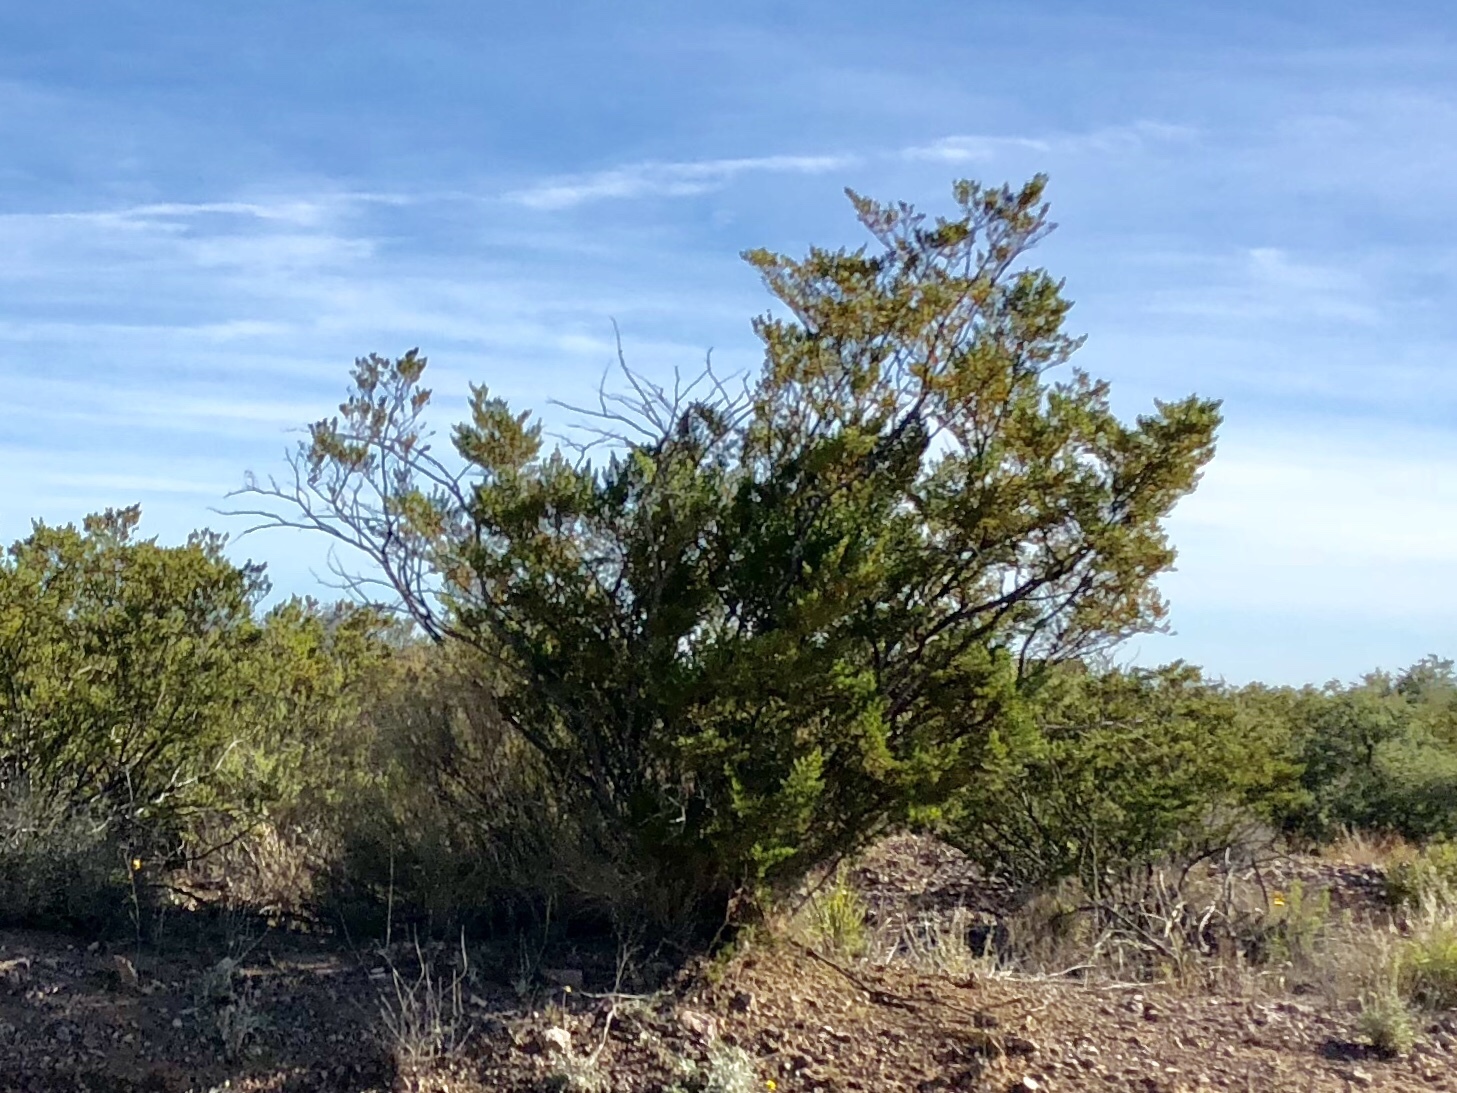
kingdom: Plantae
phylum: Tracheophyta
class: Magnoliopsida
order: Zygophyllales
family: Zygophyllaceae
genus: Larrea
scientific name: Larrea tridentata
